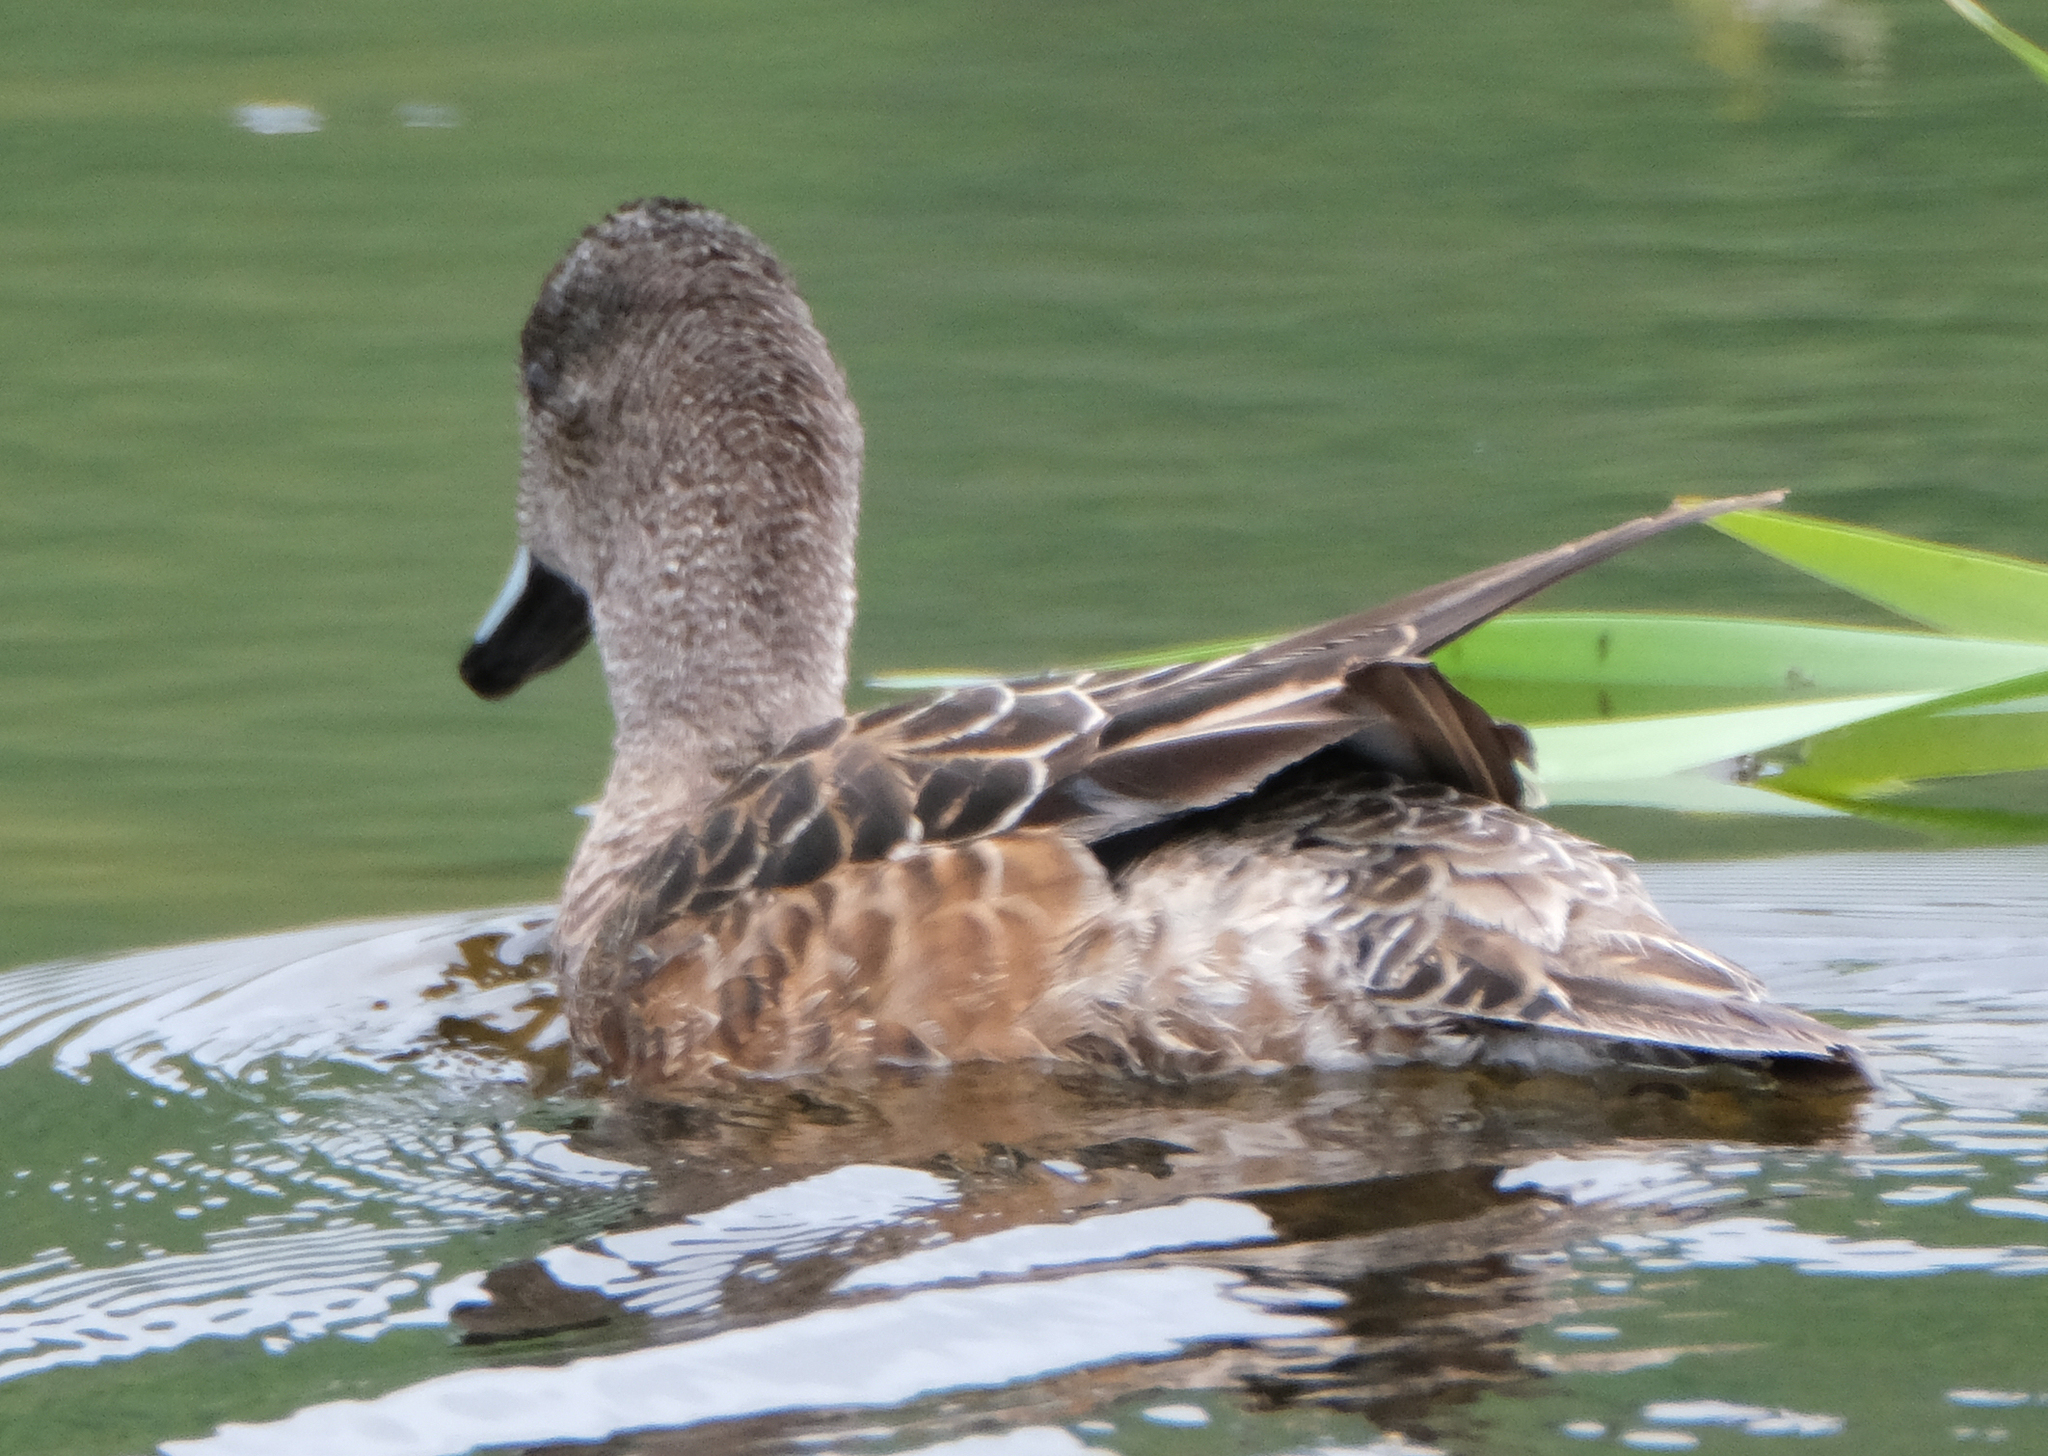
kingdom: Animalia
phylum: Chordata
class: Aves
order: Anseriformes
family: Anatidae
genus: Mareca
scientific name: Mareca americana
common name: American wigeon
